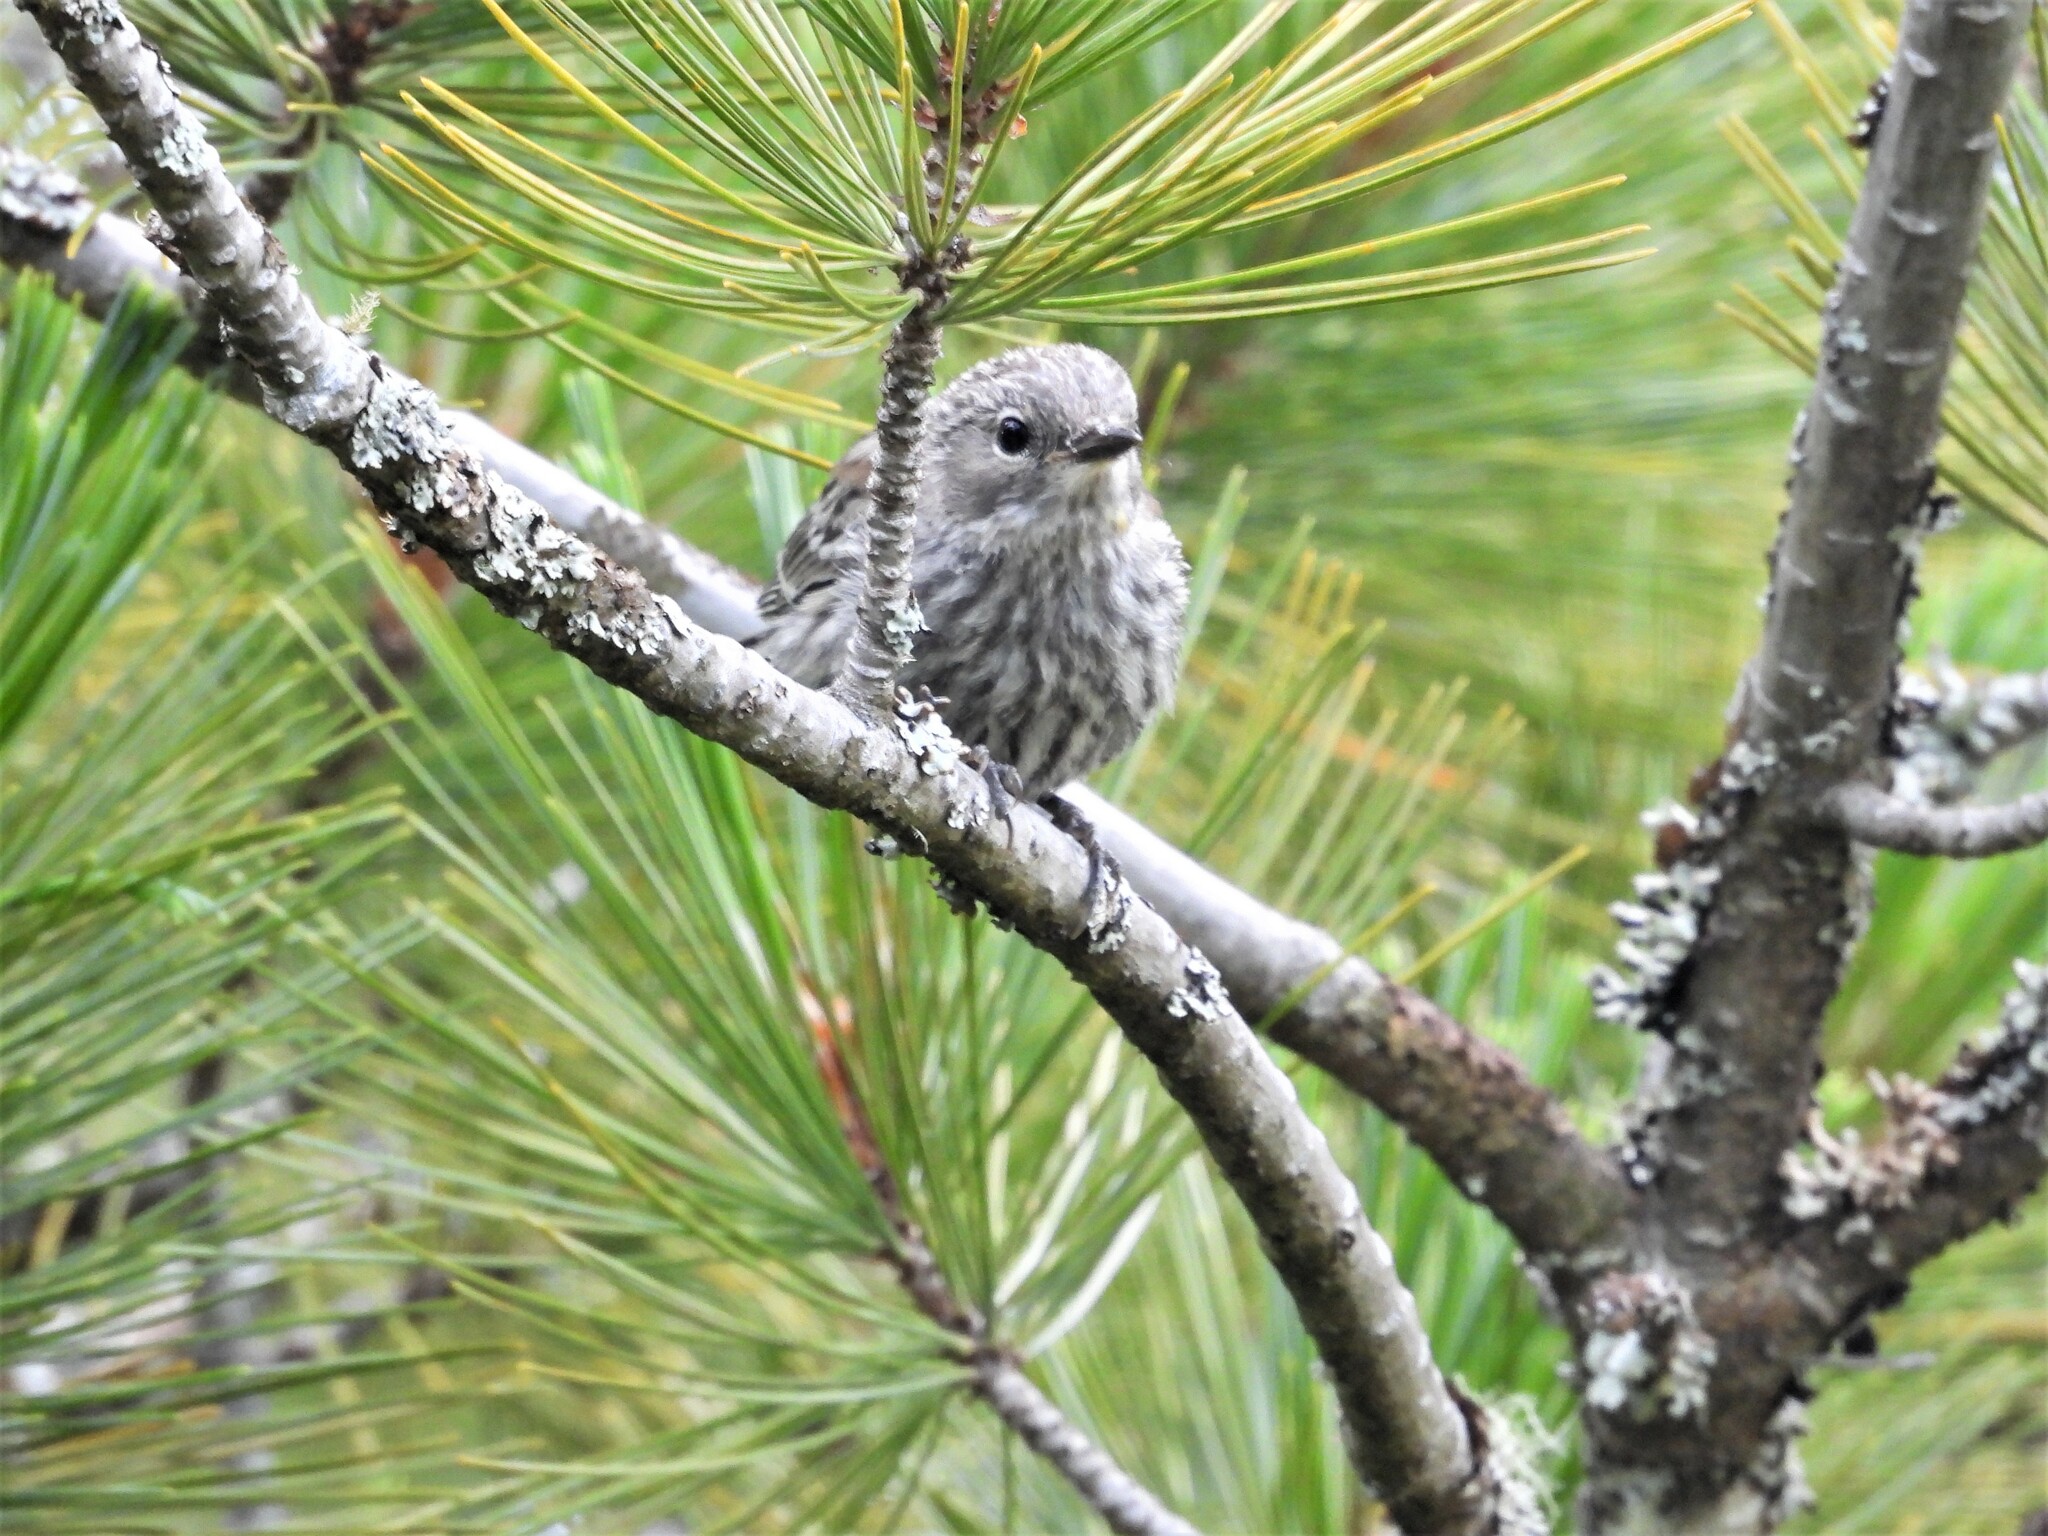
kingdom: Animalia
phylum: Chordata
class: Aves
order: Passeriformes
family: Parulidae
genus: Setophaga
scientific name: Setophaga coronata
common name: Myrtle warbler
